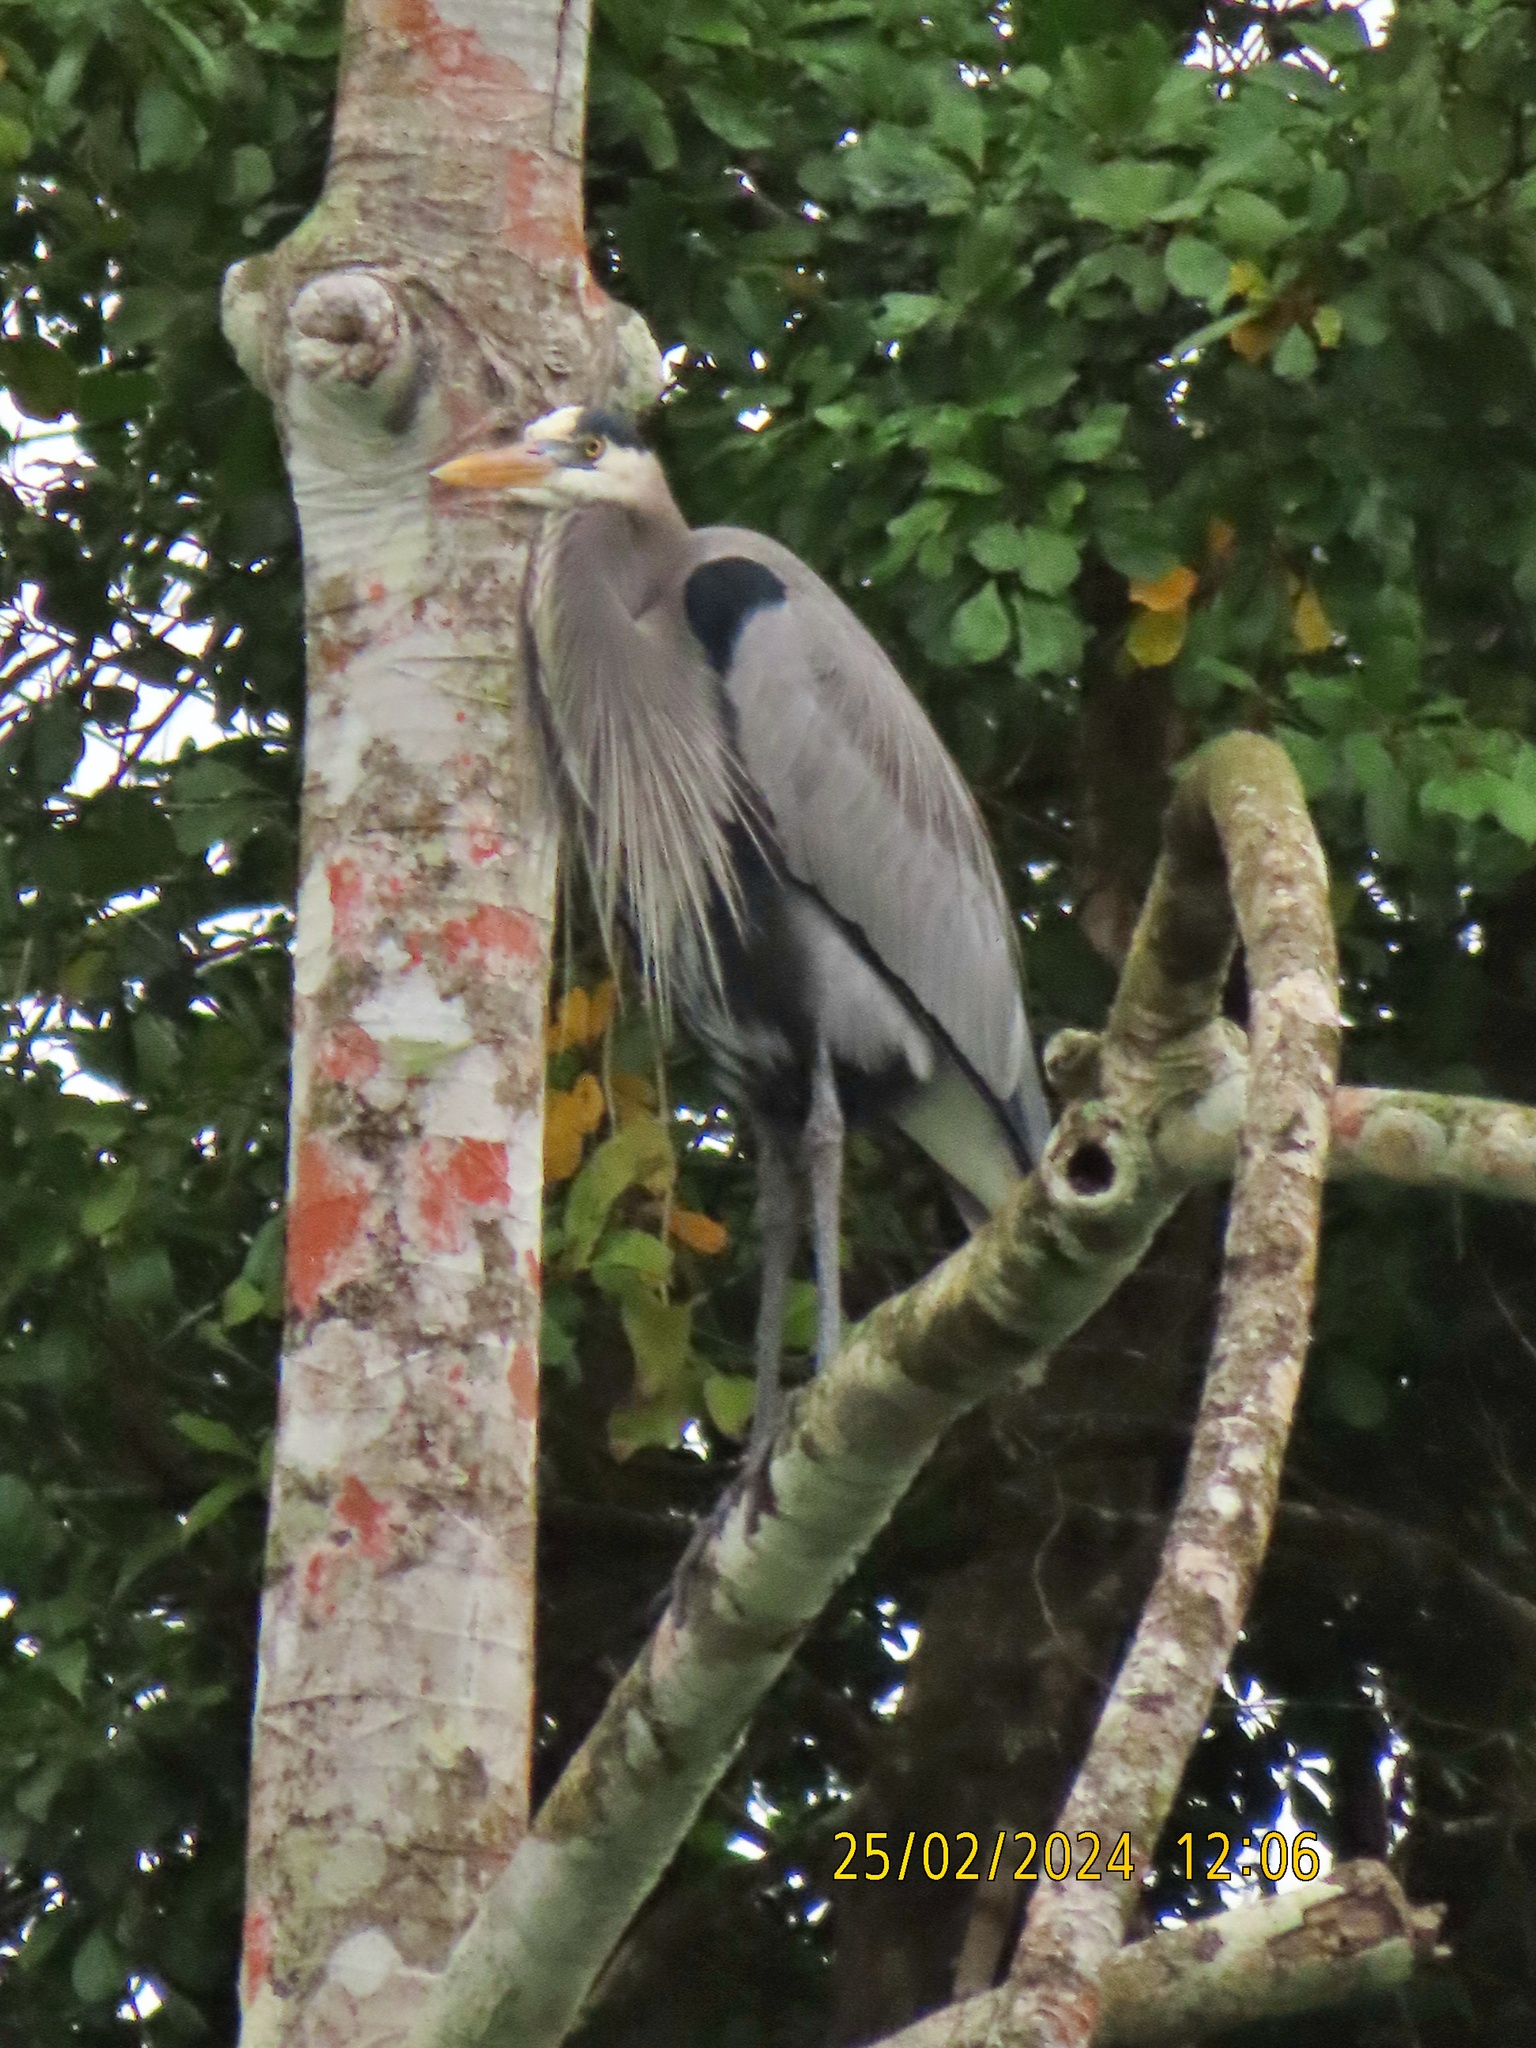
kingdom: Animalia
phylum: Chordata
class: Aves
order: Pelecaniformes
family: Ardeidae
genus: Ardea
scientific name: Ardea herodias
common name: Great blue heron
